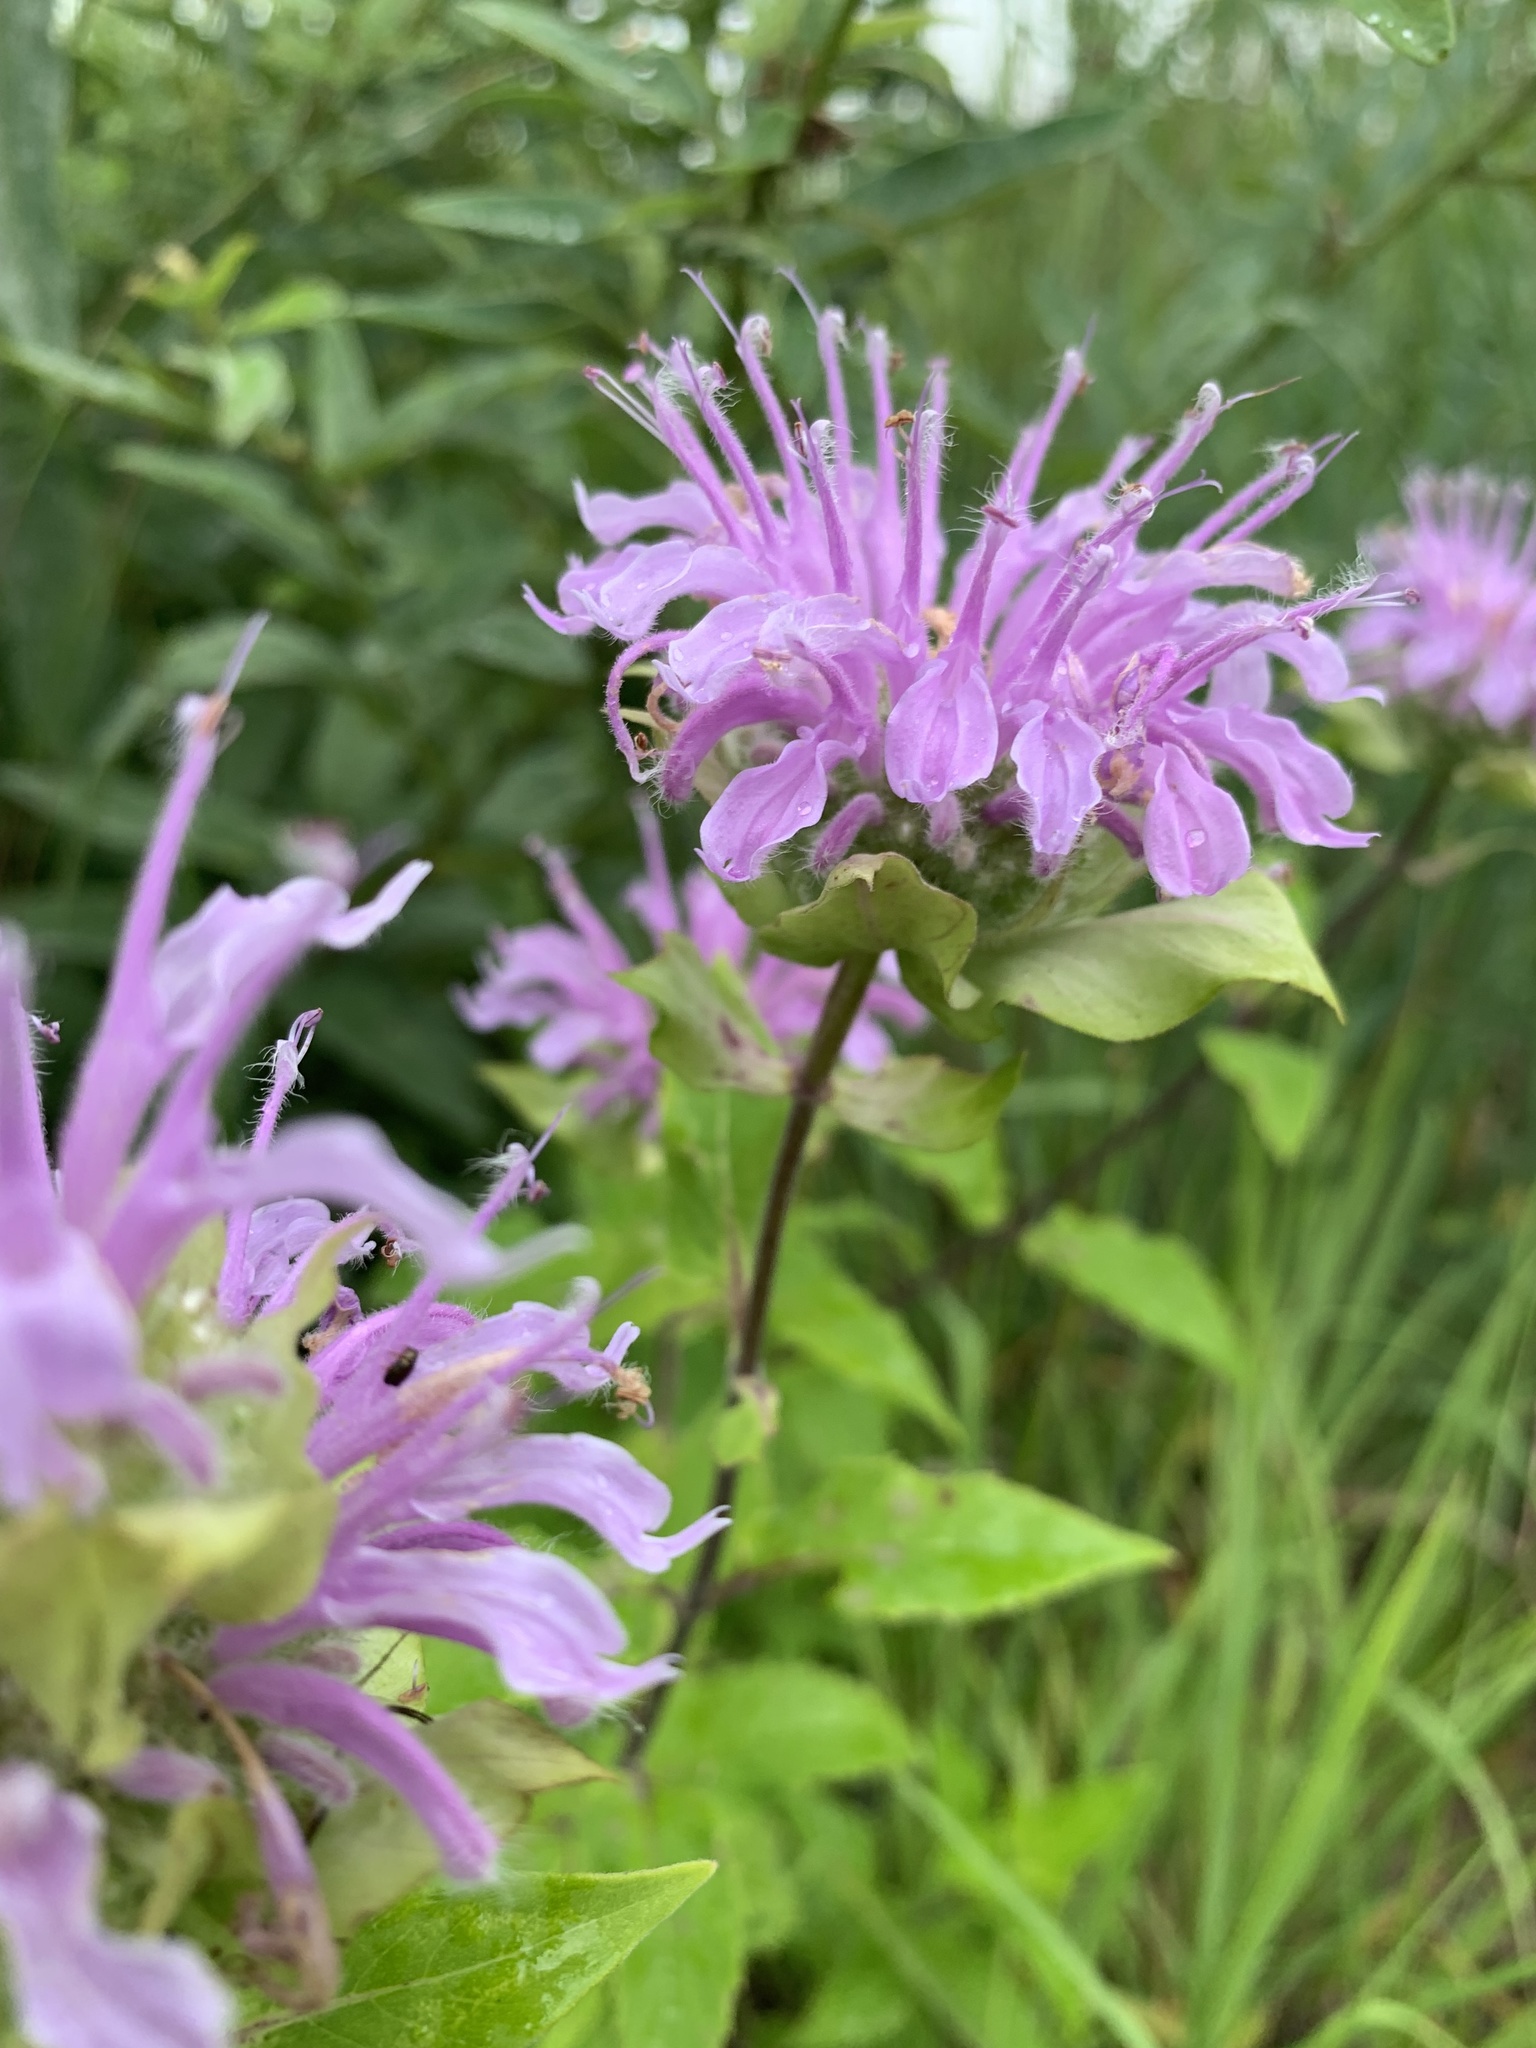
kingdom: Plantae
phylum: Tracheophyta
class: Magnoliopsida
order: Lamiales
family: Lamiaceae
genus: Monarda
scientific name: Monarda fistulosa
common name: Purple beebalm
